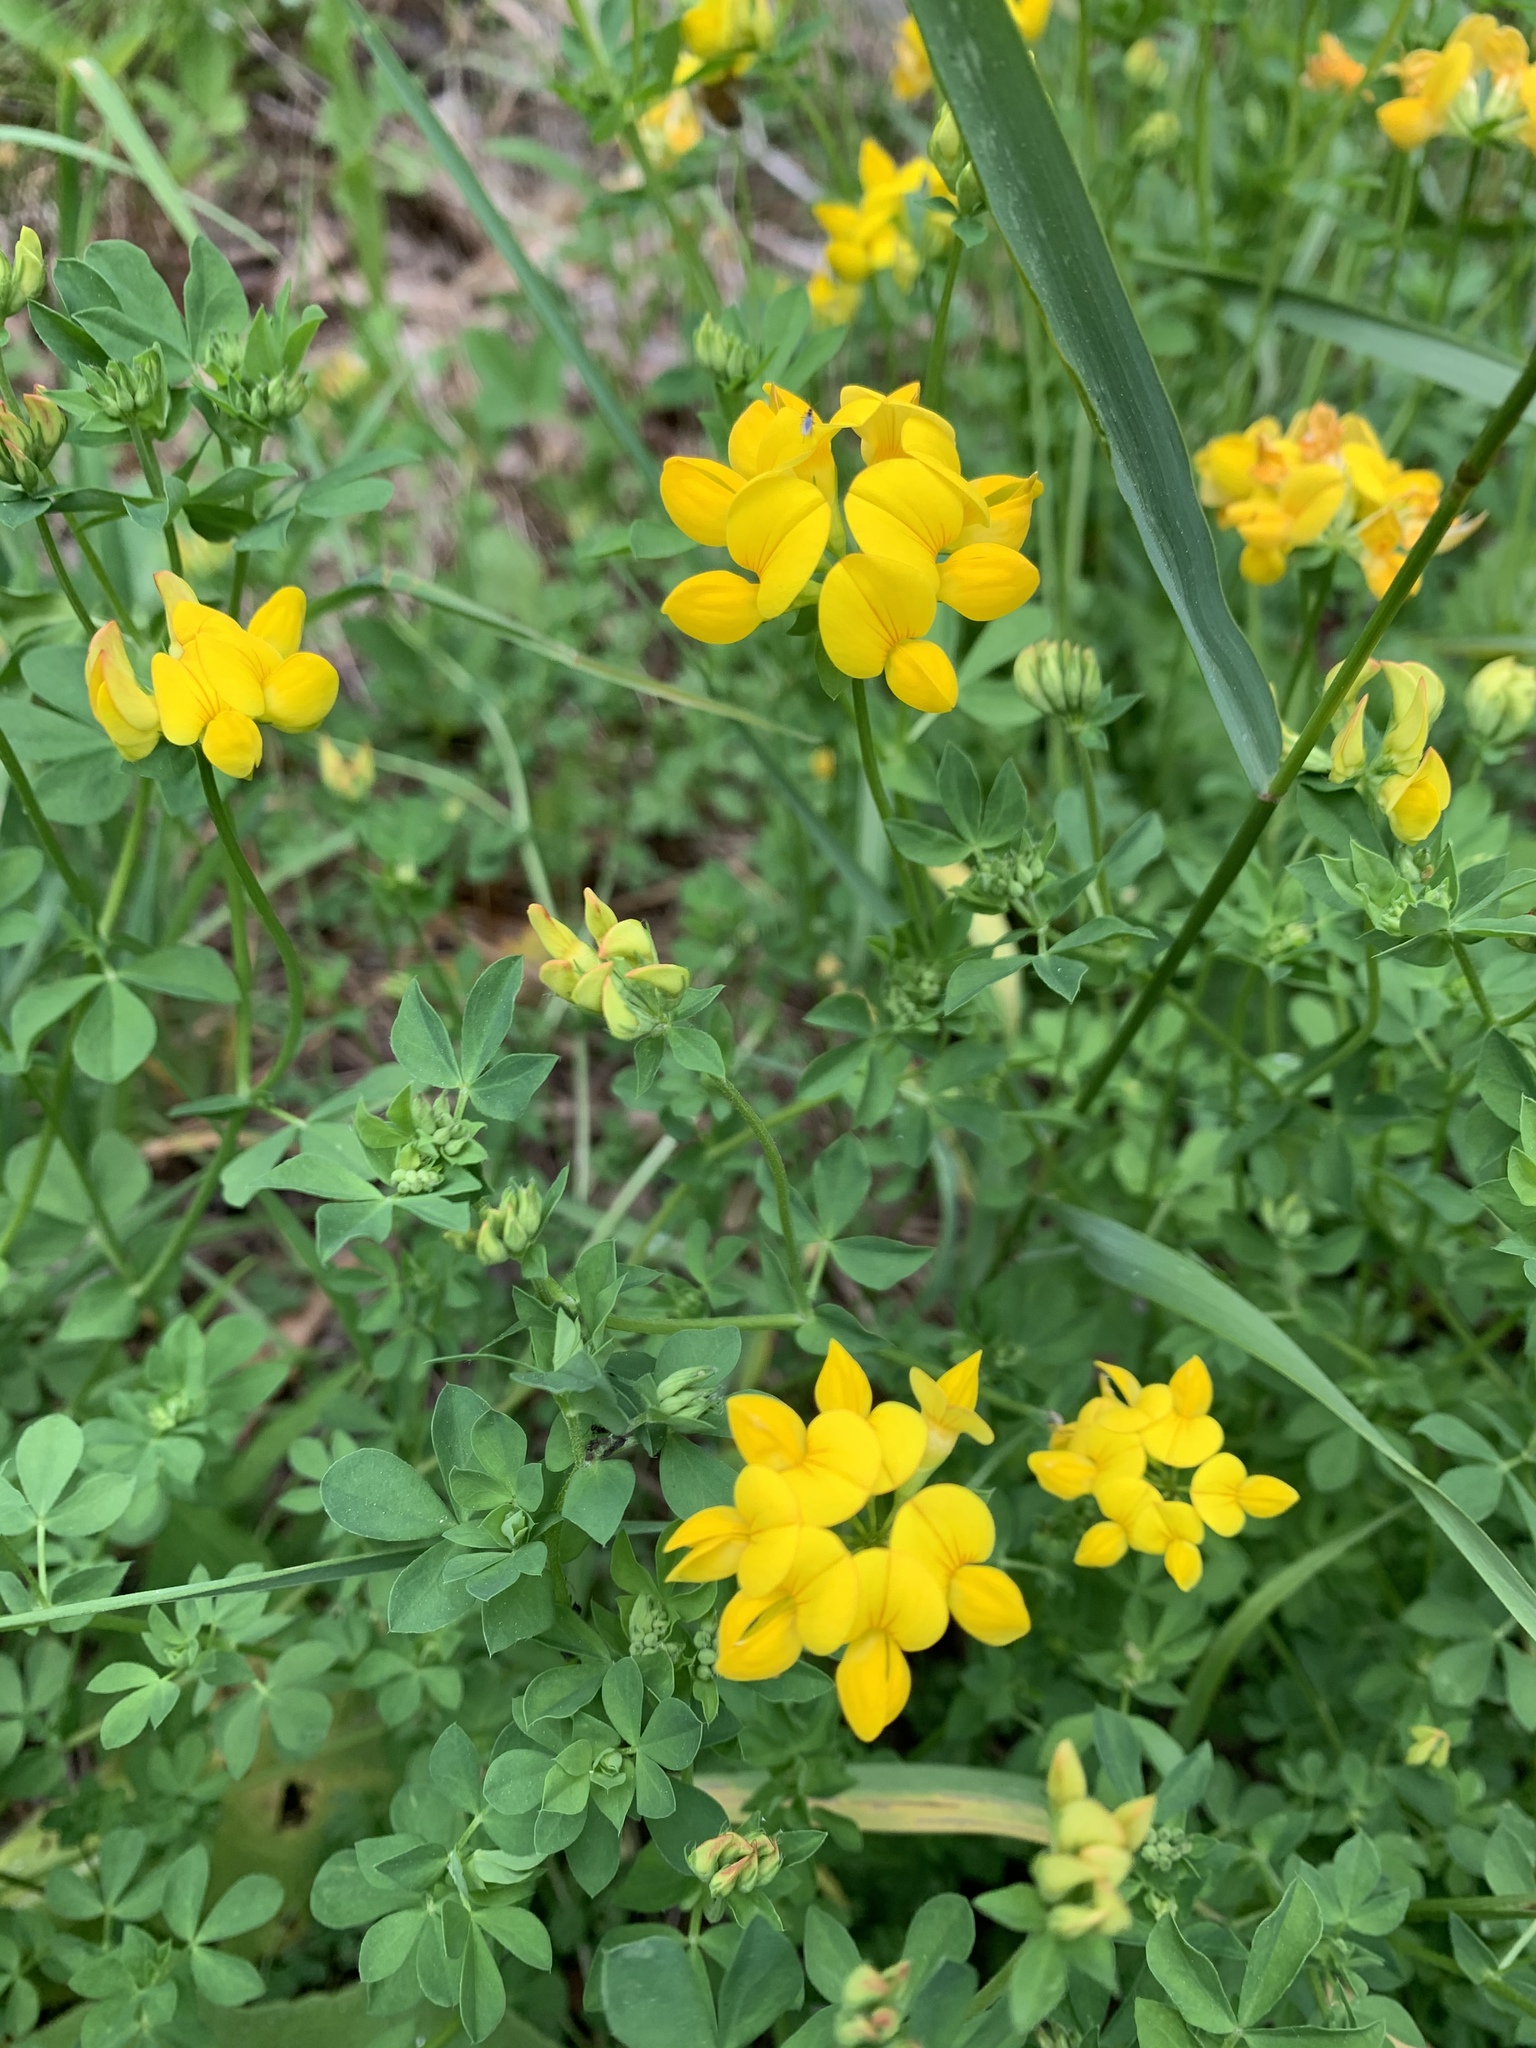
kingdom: Plantae
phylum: Tracheophyta
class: Magnoliopsida
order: Fabales
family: Fabaceae
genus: Lotus
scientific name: Lotus corniculatus
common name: Common bird's-foot-trefoil
